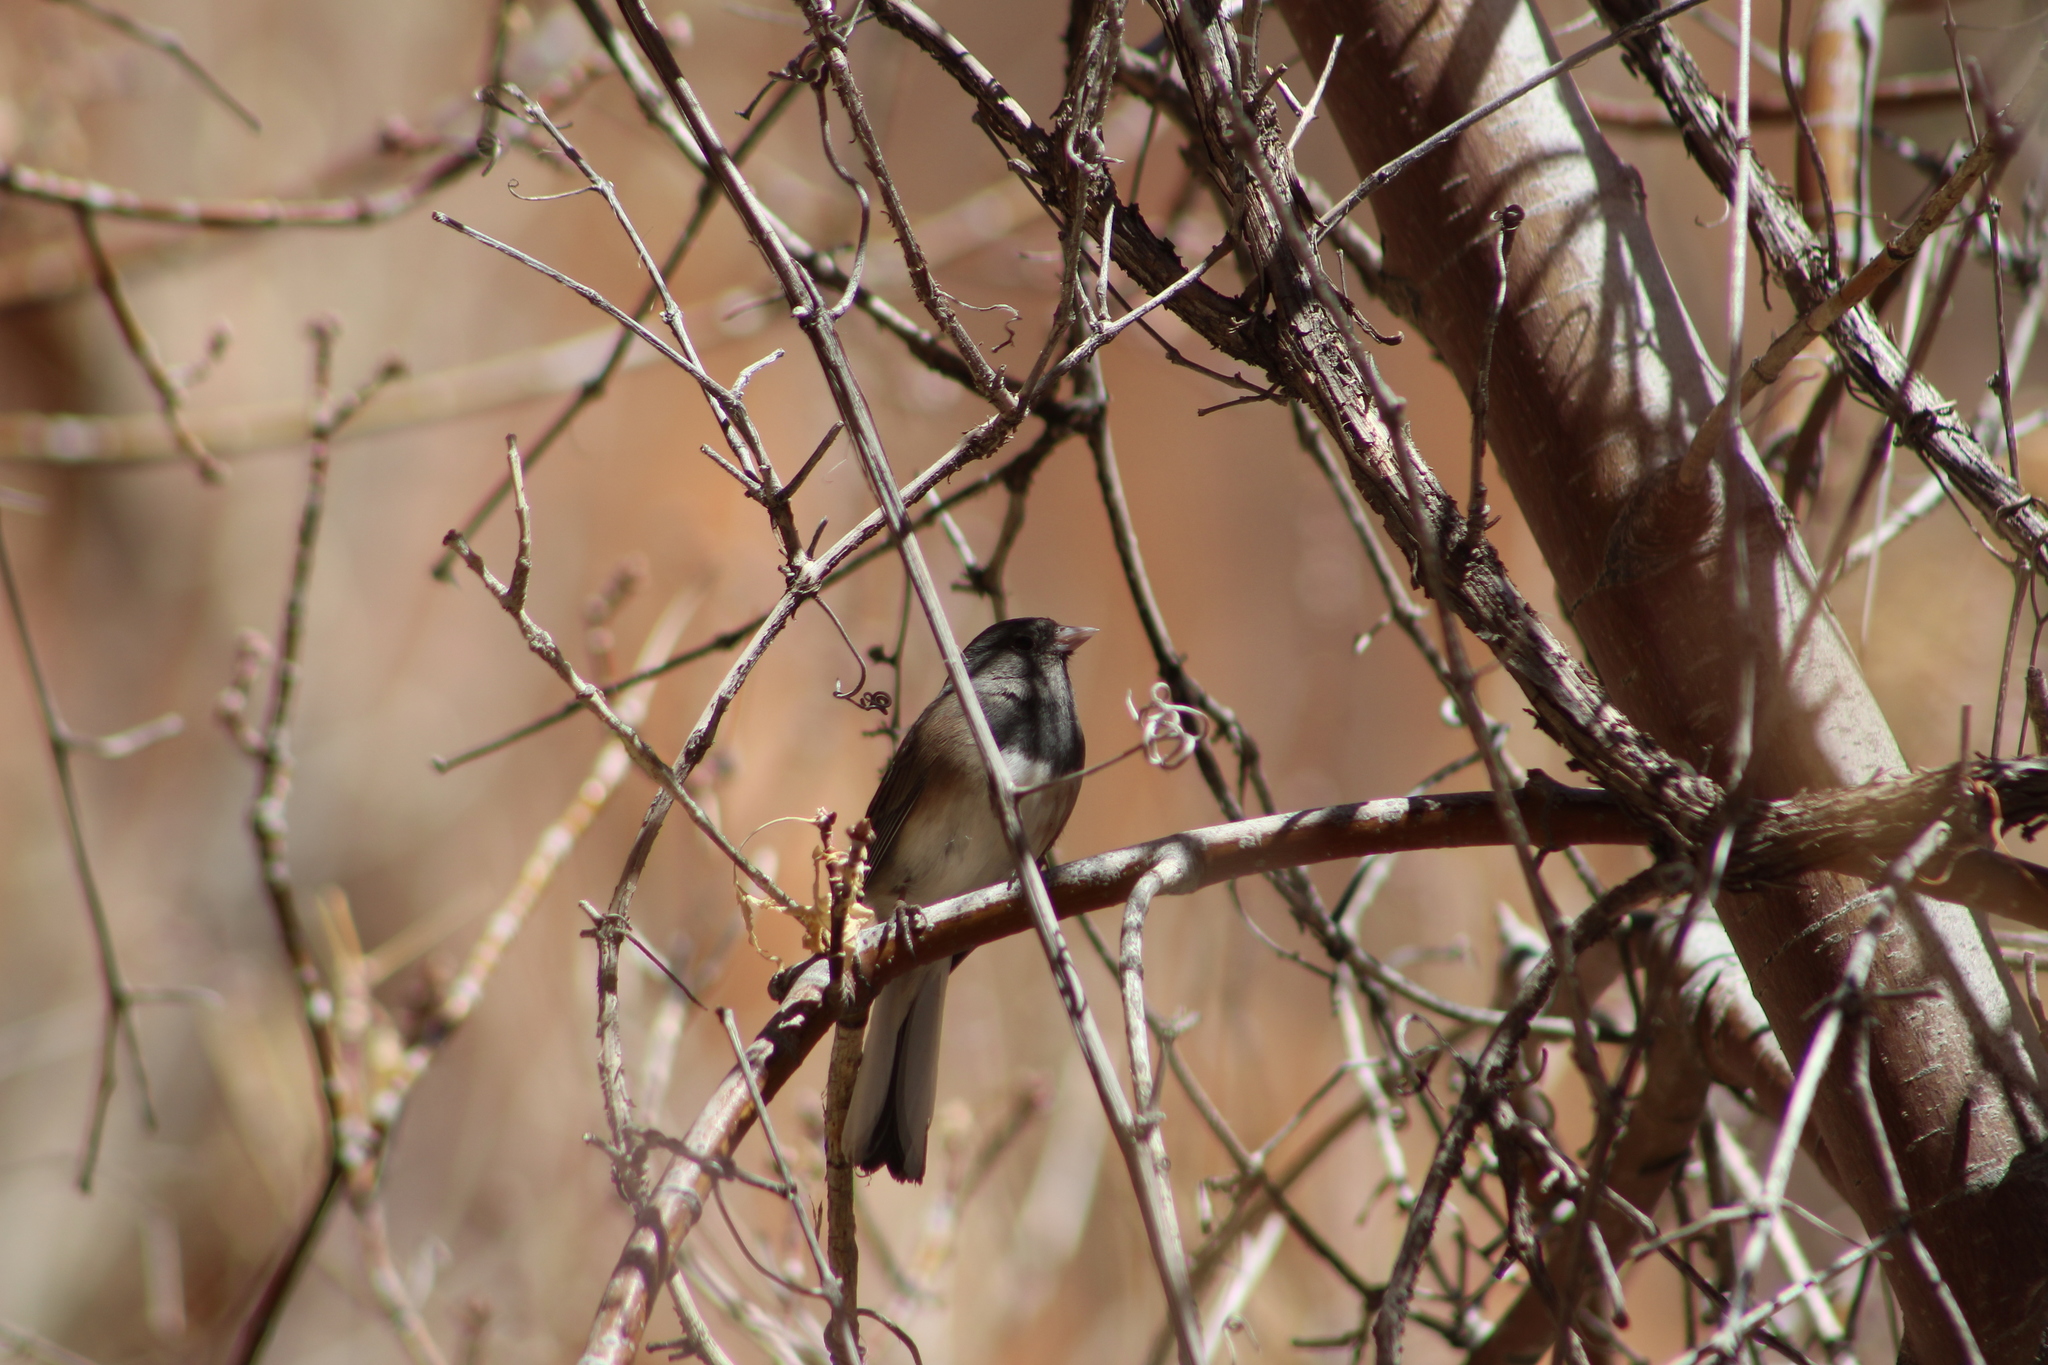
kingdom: Animalia
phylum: Chordata
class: Aves
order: Passeriformes
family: Passerellidae
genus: Junco
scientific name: Junco hyemalis
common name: Dark-eyed junco
